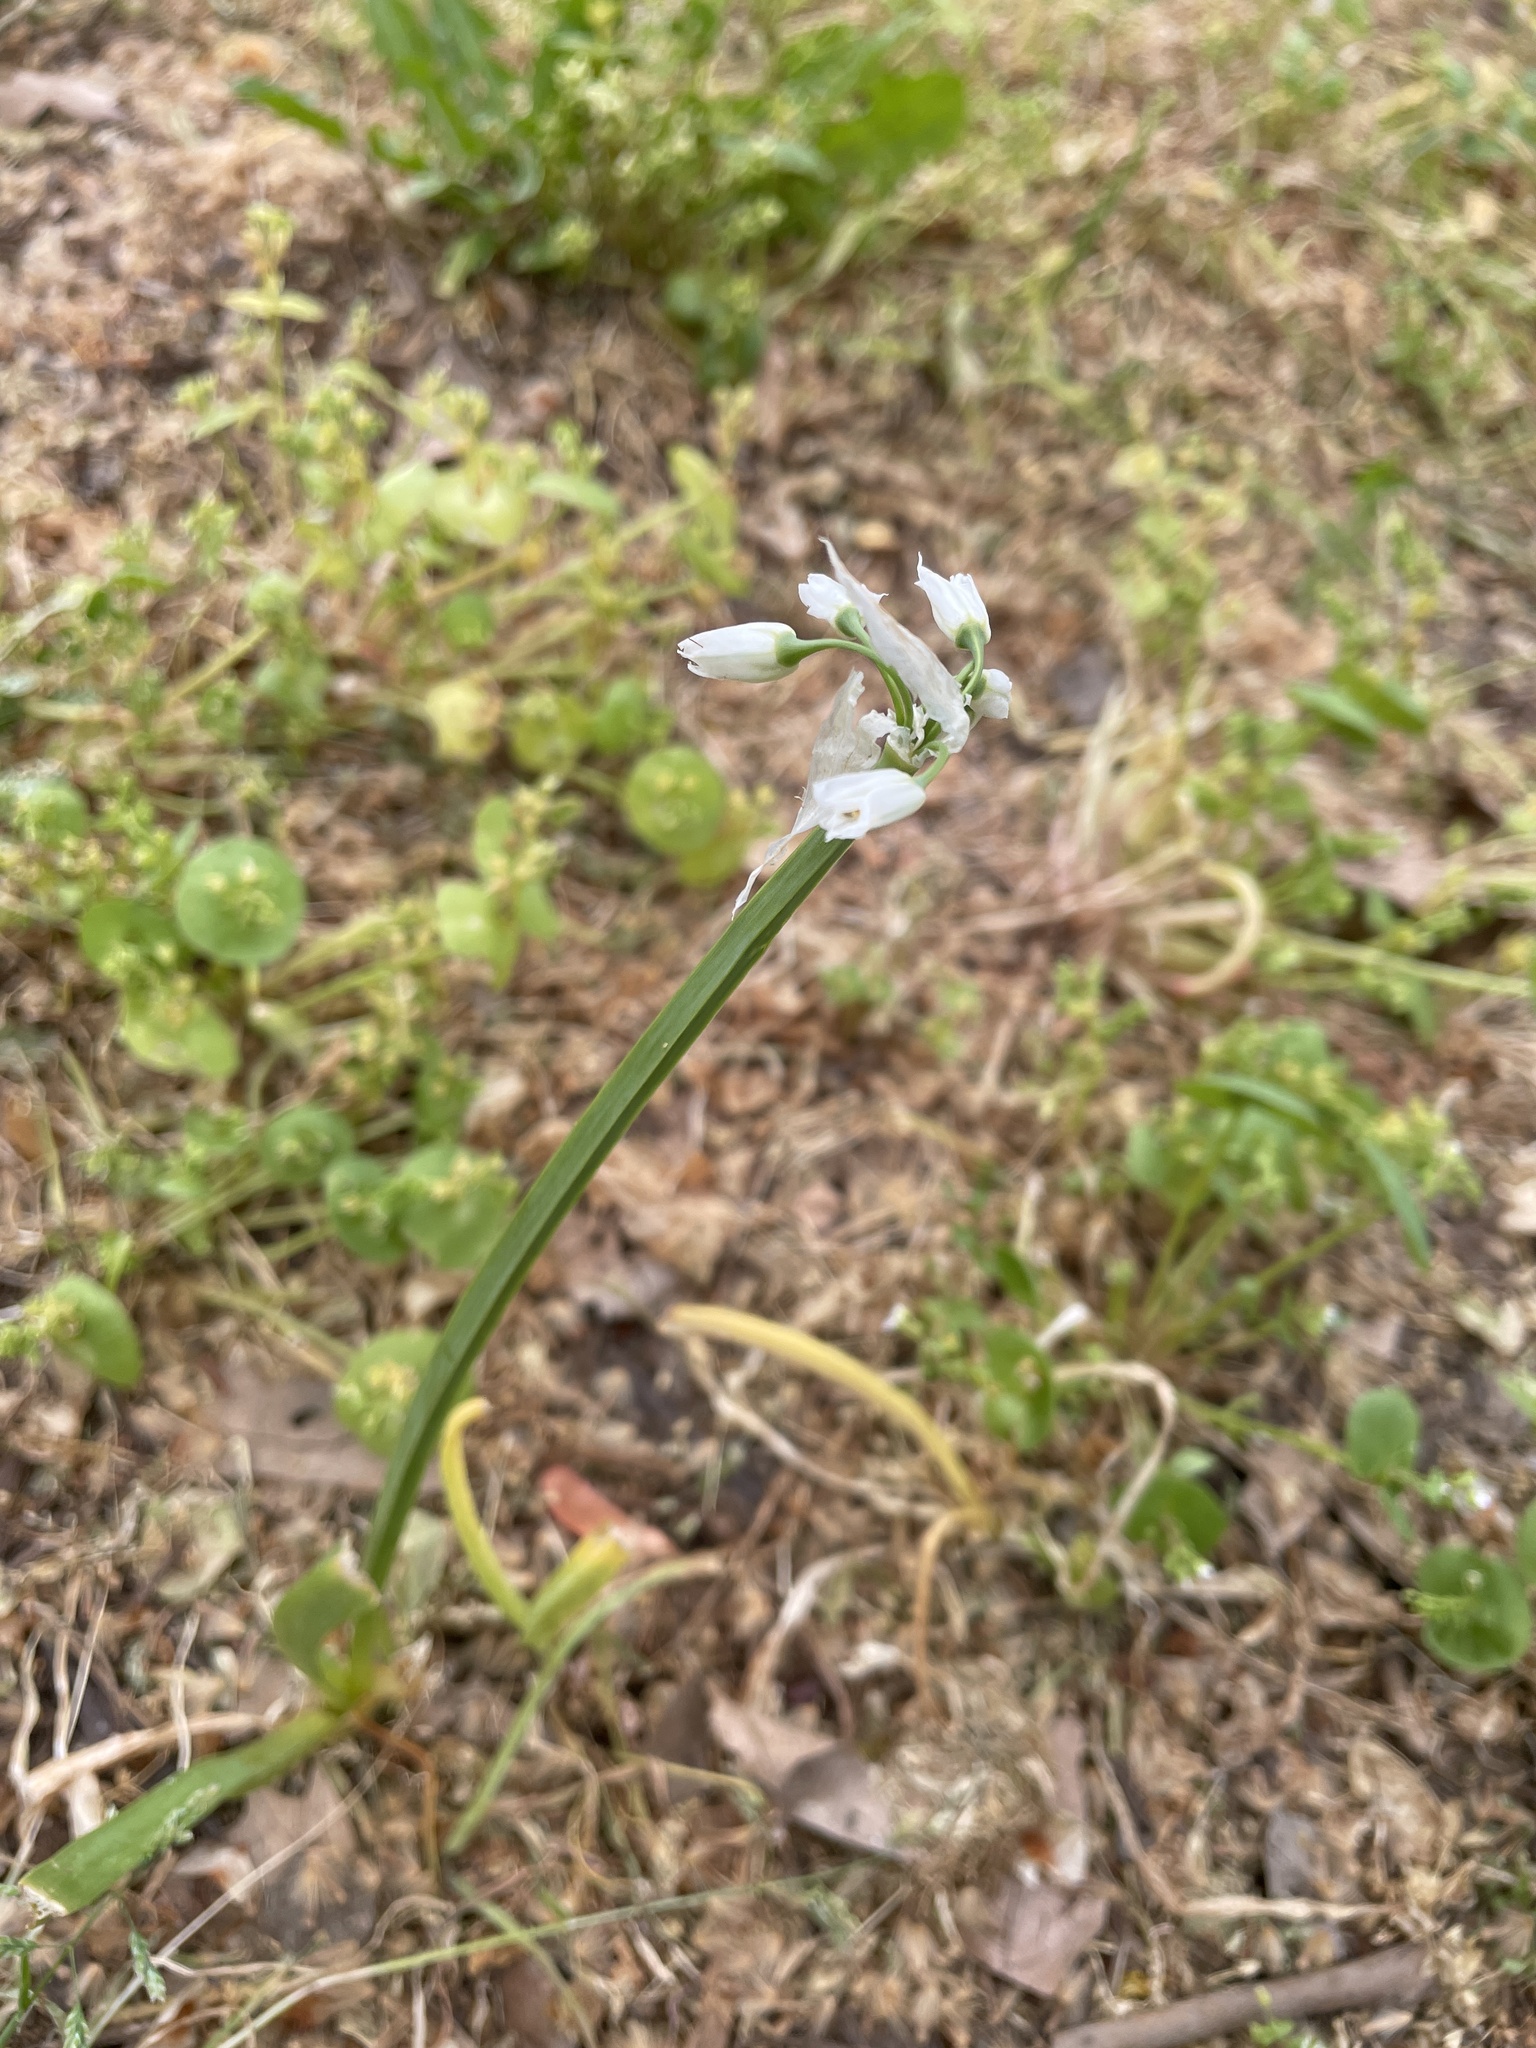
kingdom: Plantae
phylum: Tracheophyta
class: Liliopsida
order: Asparagales
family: Amaryllidaceae
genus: Allium
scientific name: Allium triquetrum
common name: Three-cornered garlic
